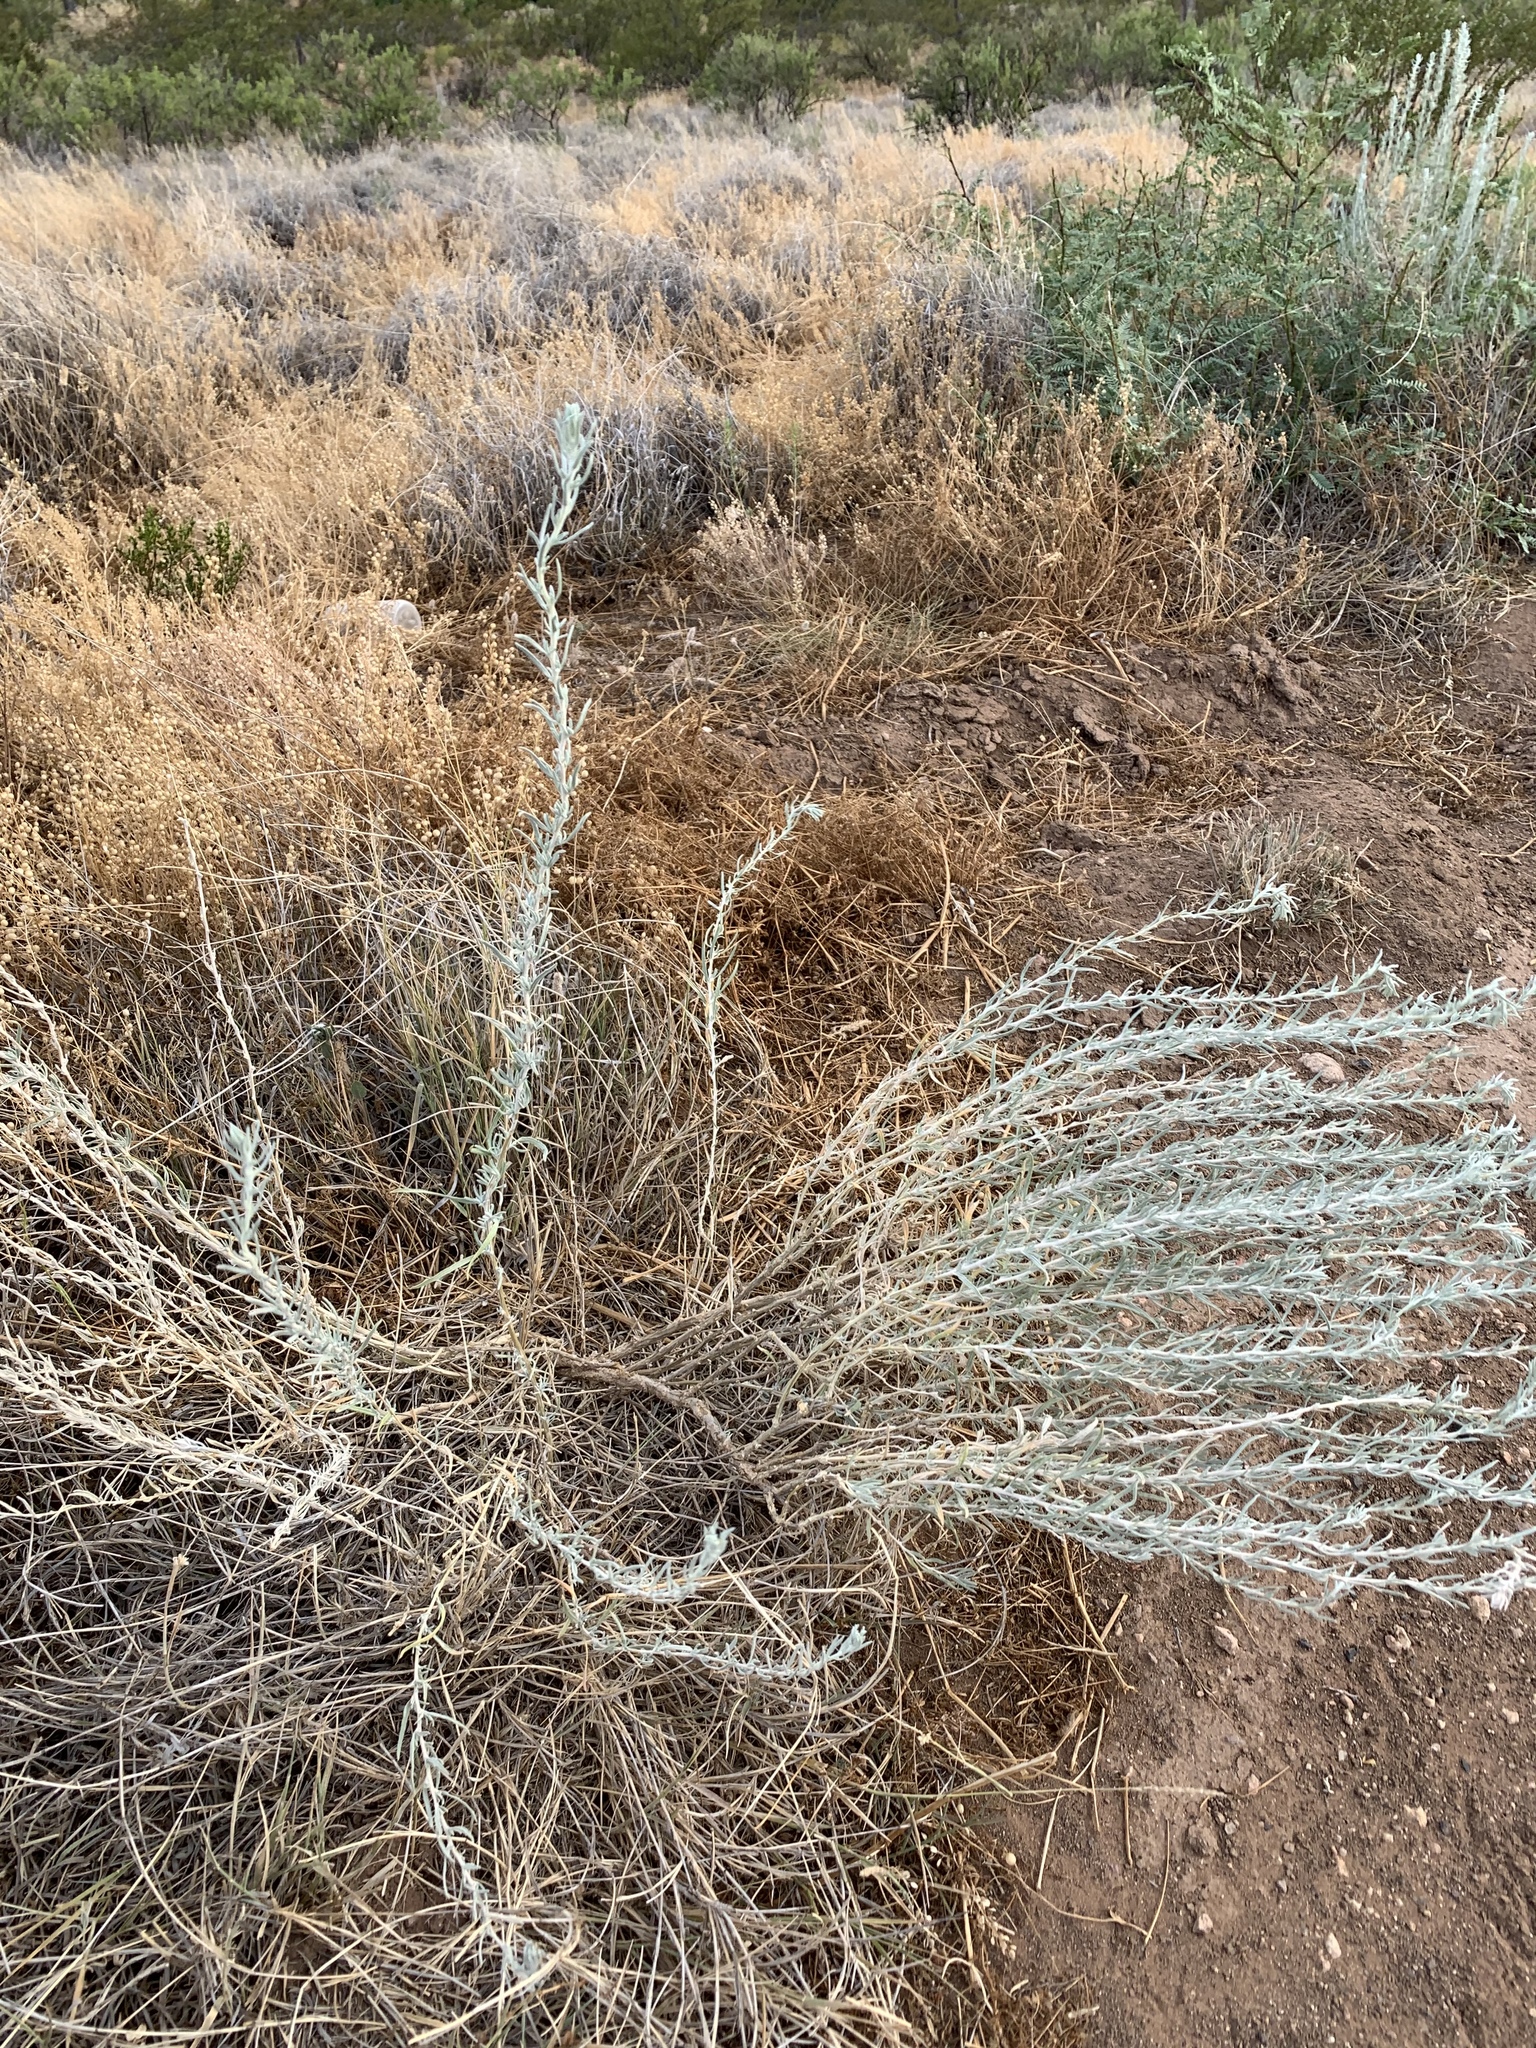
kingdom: Plantae
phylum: Tracheophyta
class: Magnoliopsida
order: Caryophyllales
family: Amaranthaceae
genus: Krascheninnikovia
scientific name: Krascheninnikovia lanata
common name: Winterfat
